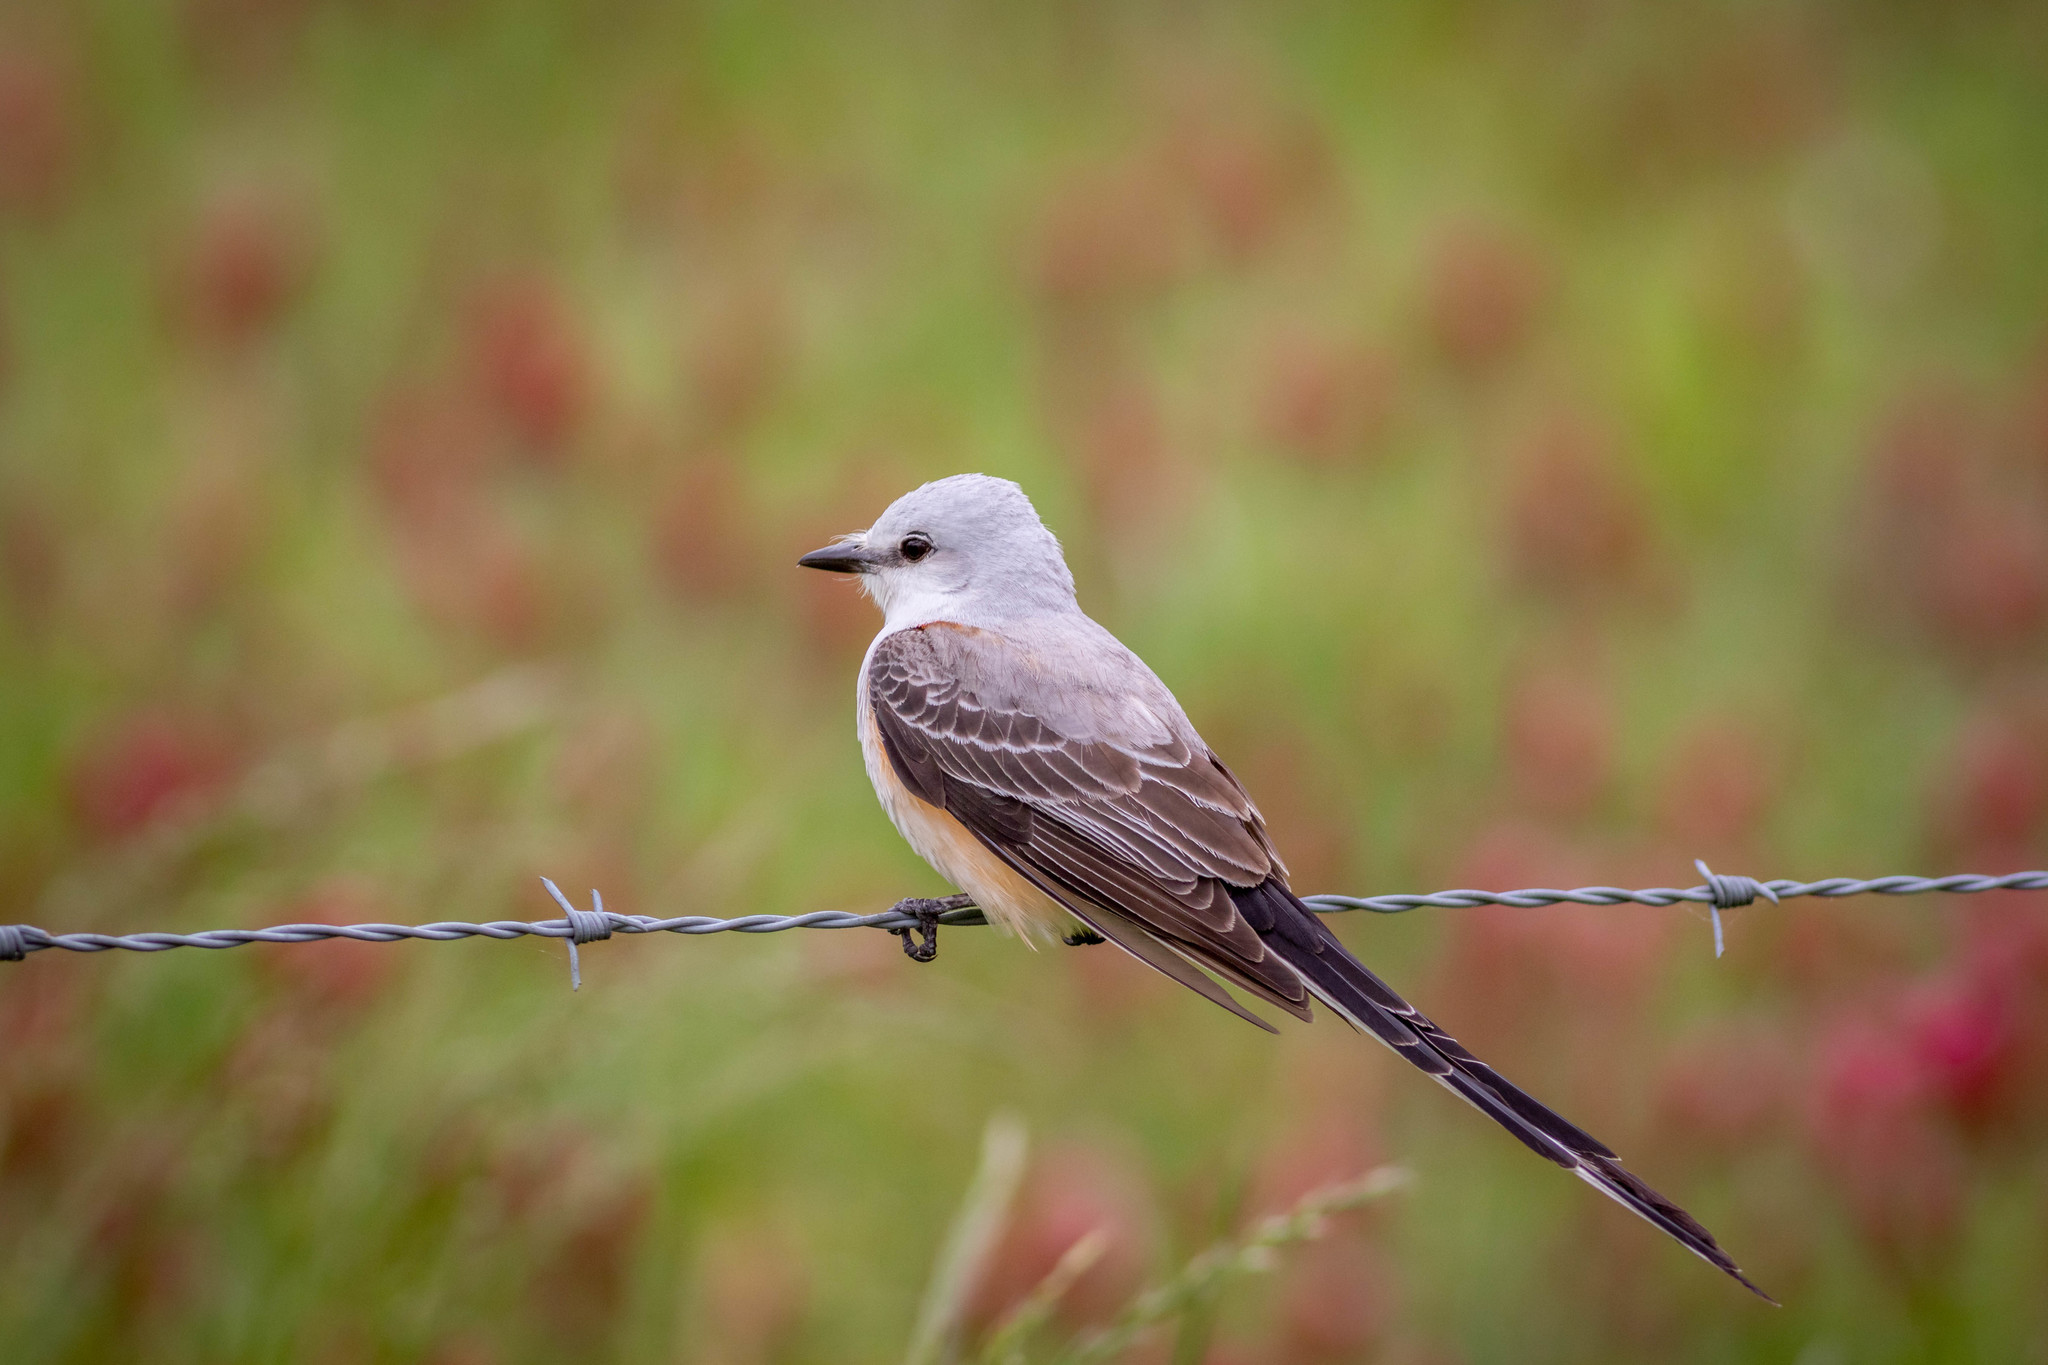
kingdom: Animalia
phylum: Chordata
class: Aves
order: Passeriformes
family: Tyrannidae
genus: Tyrannus
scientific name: Tyrannus forficatus
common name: Scissor-tailed flycatcher
